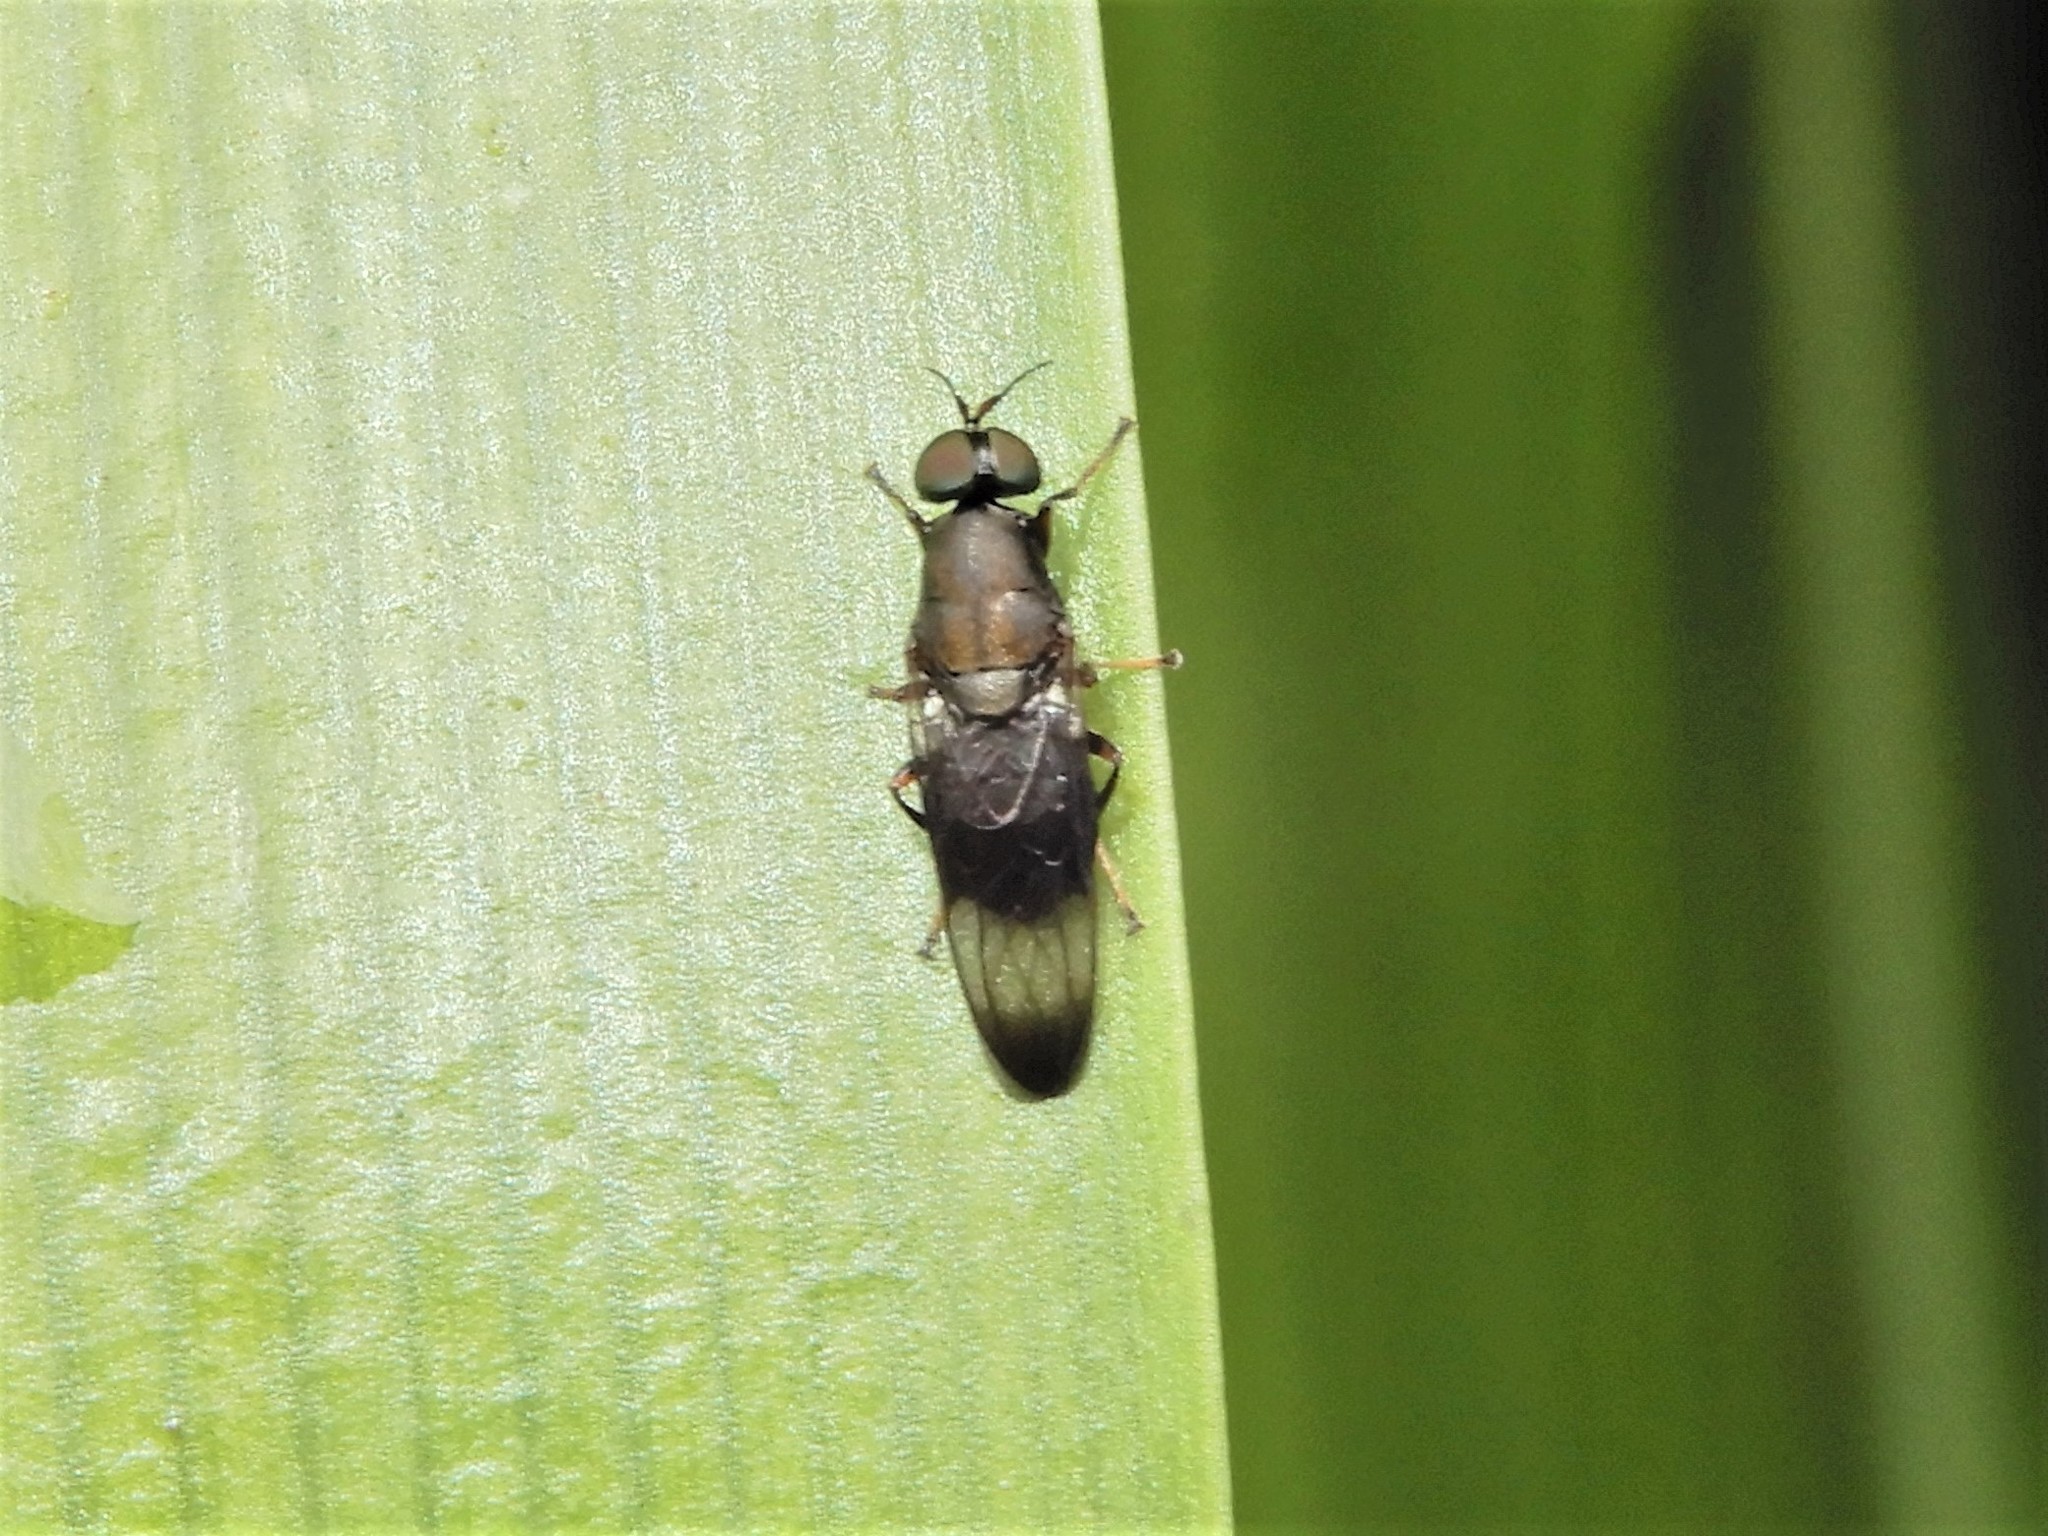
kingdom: Animalia
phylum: Arthropoda
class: Insecta
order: Diptera
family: Stratiomyidae
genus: Dysbiota
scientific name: Dysbiota peregrina
